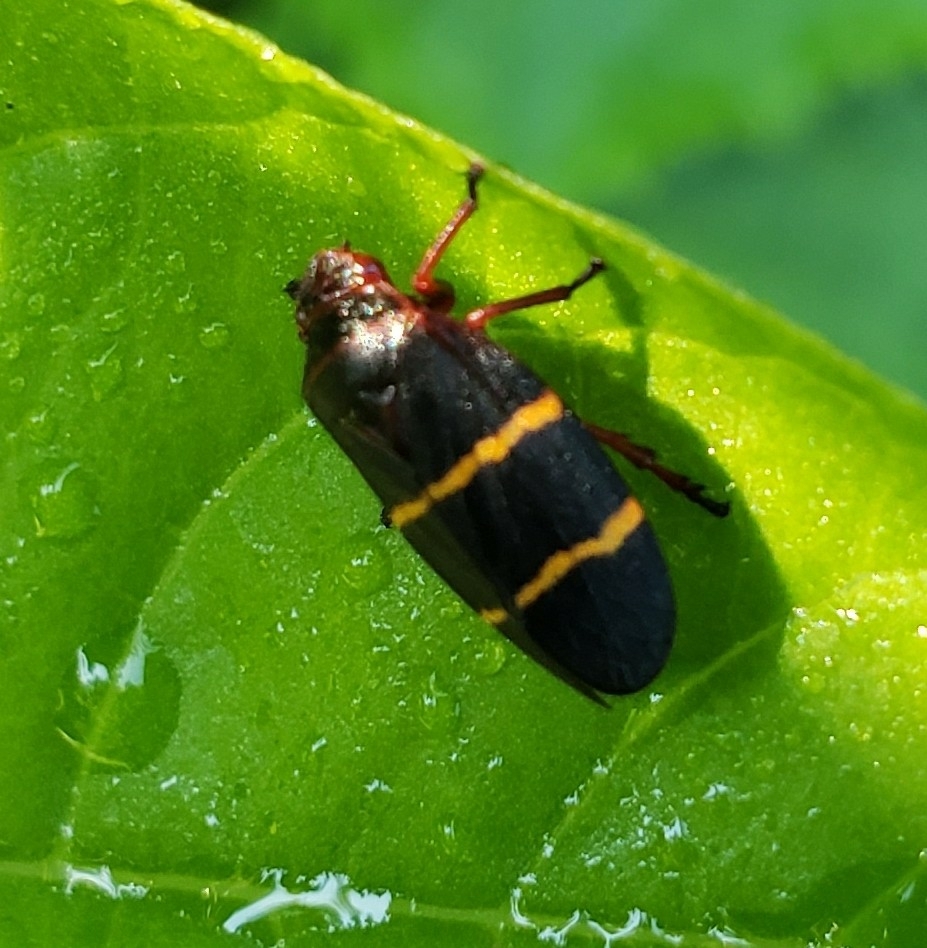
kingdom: Animalia
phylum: Arthropoda
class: Insecta
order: Hemiptera
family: Cercopidae
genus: Prosapia
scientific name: Prosapia bicincta
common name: Twolined spittlebug
